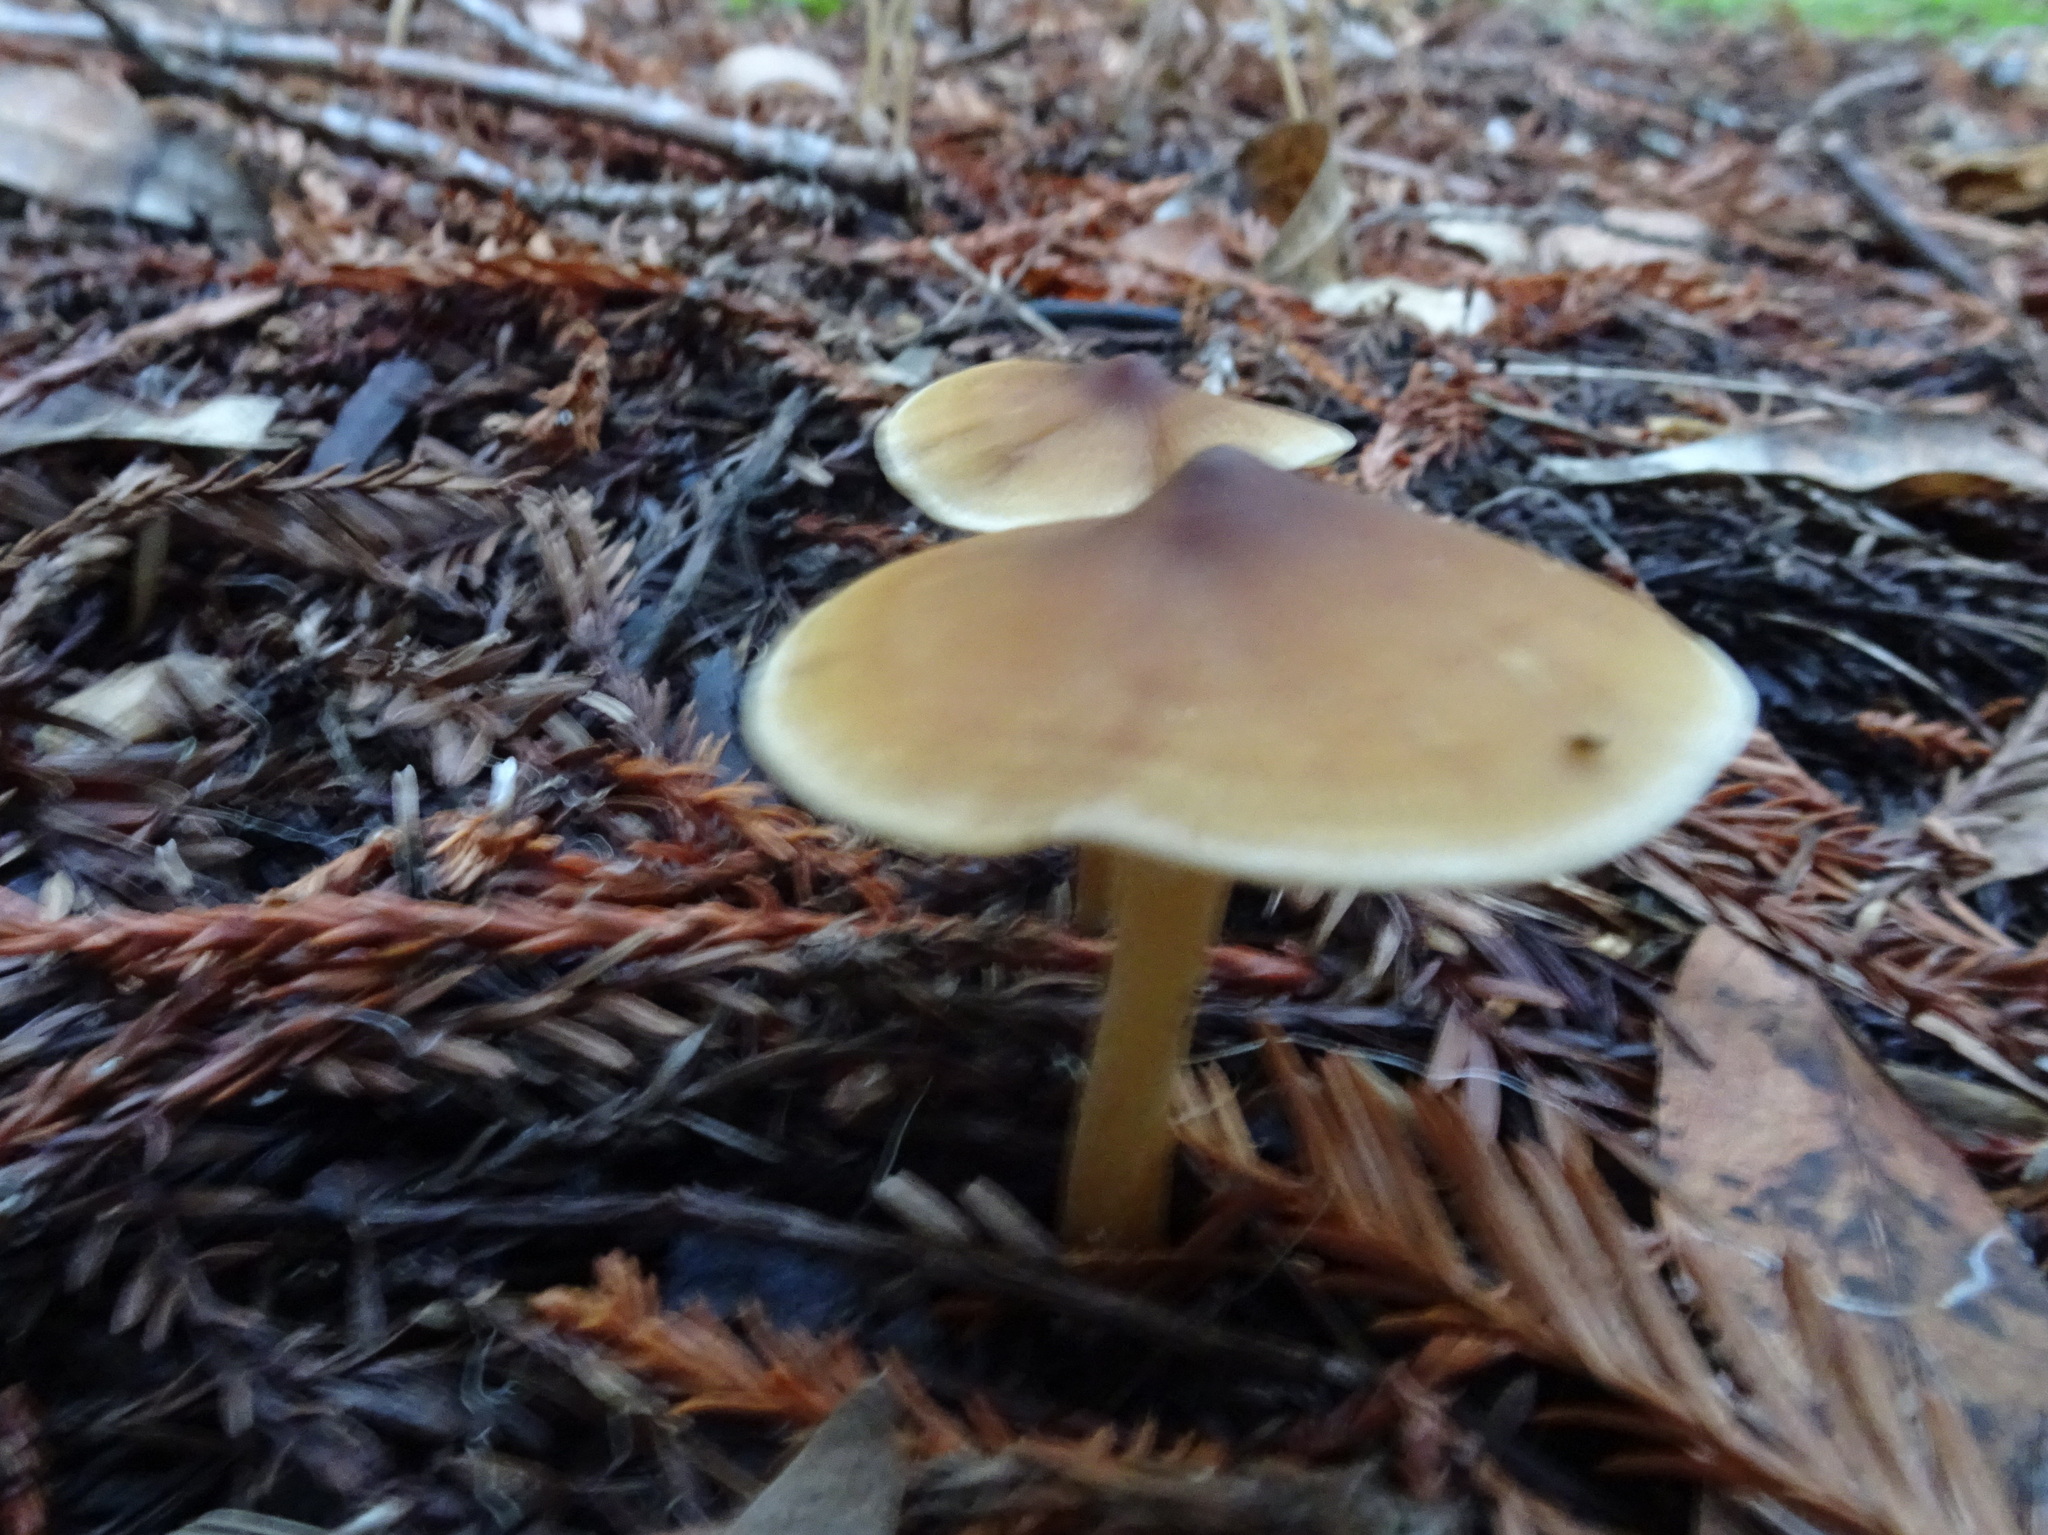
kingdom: Fungi
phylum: Basidiomycota
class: Agaricomycetes
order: Agaricales
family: Tricholomataceae
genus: Caulorhiza
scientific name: Caulorhiza umbonata
